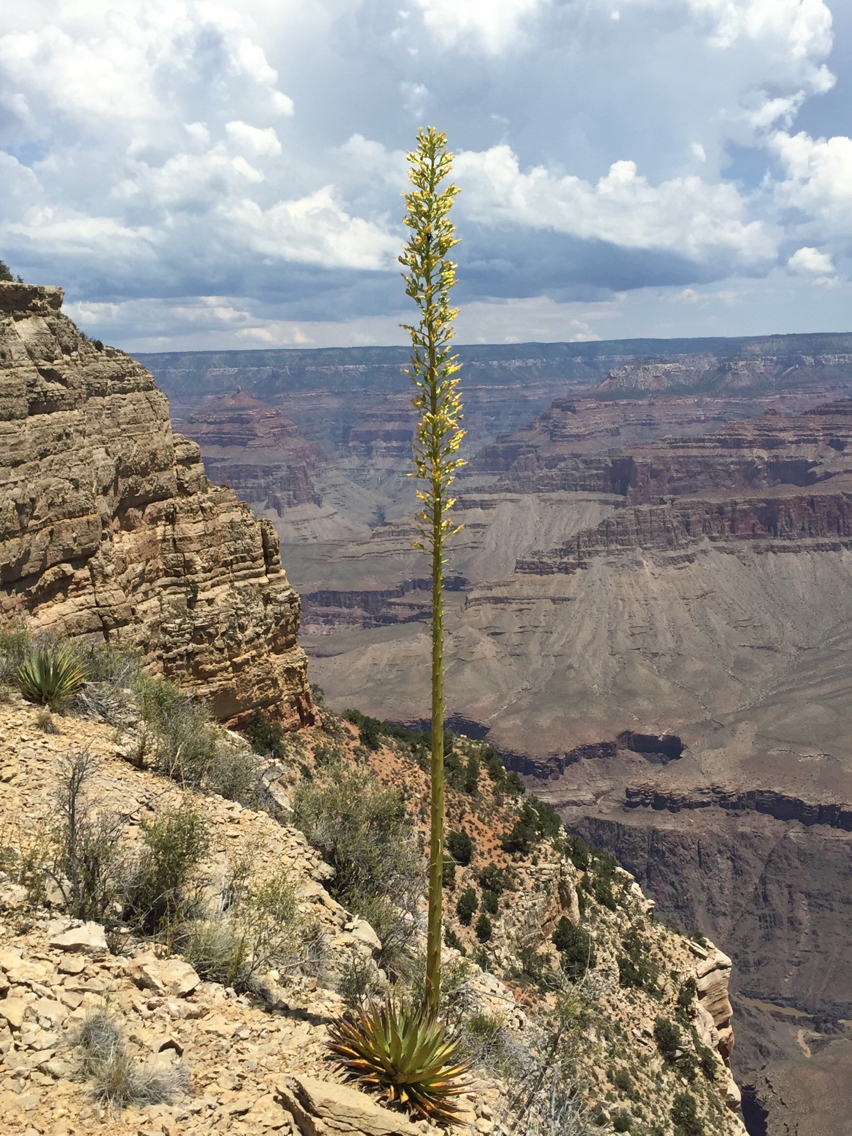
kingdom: Plantae
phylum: Tracheophyta
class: Liliopsida
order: Asparagales
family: Asparagaceae
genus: Agave
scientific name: Agave utahensis
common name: Utah agave
